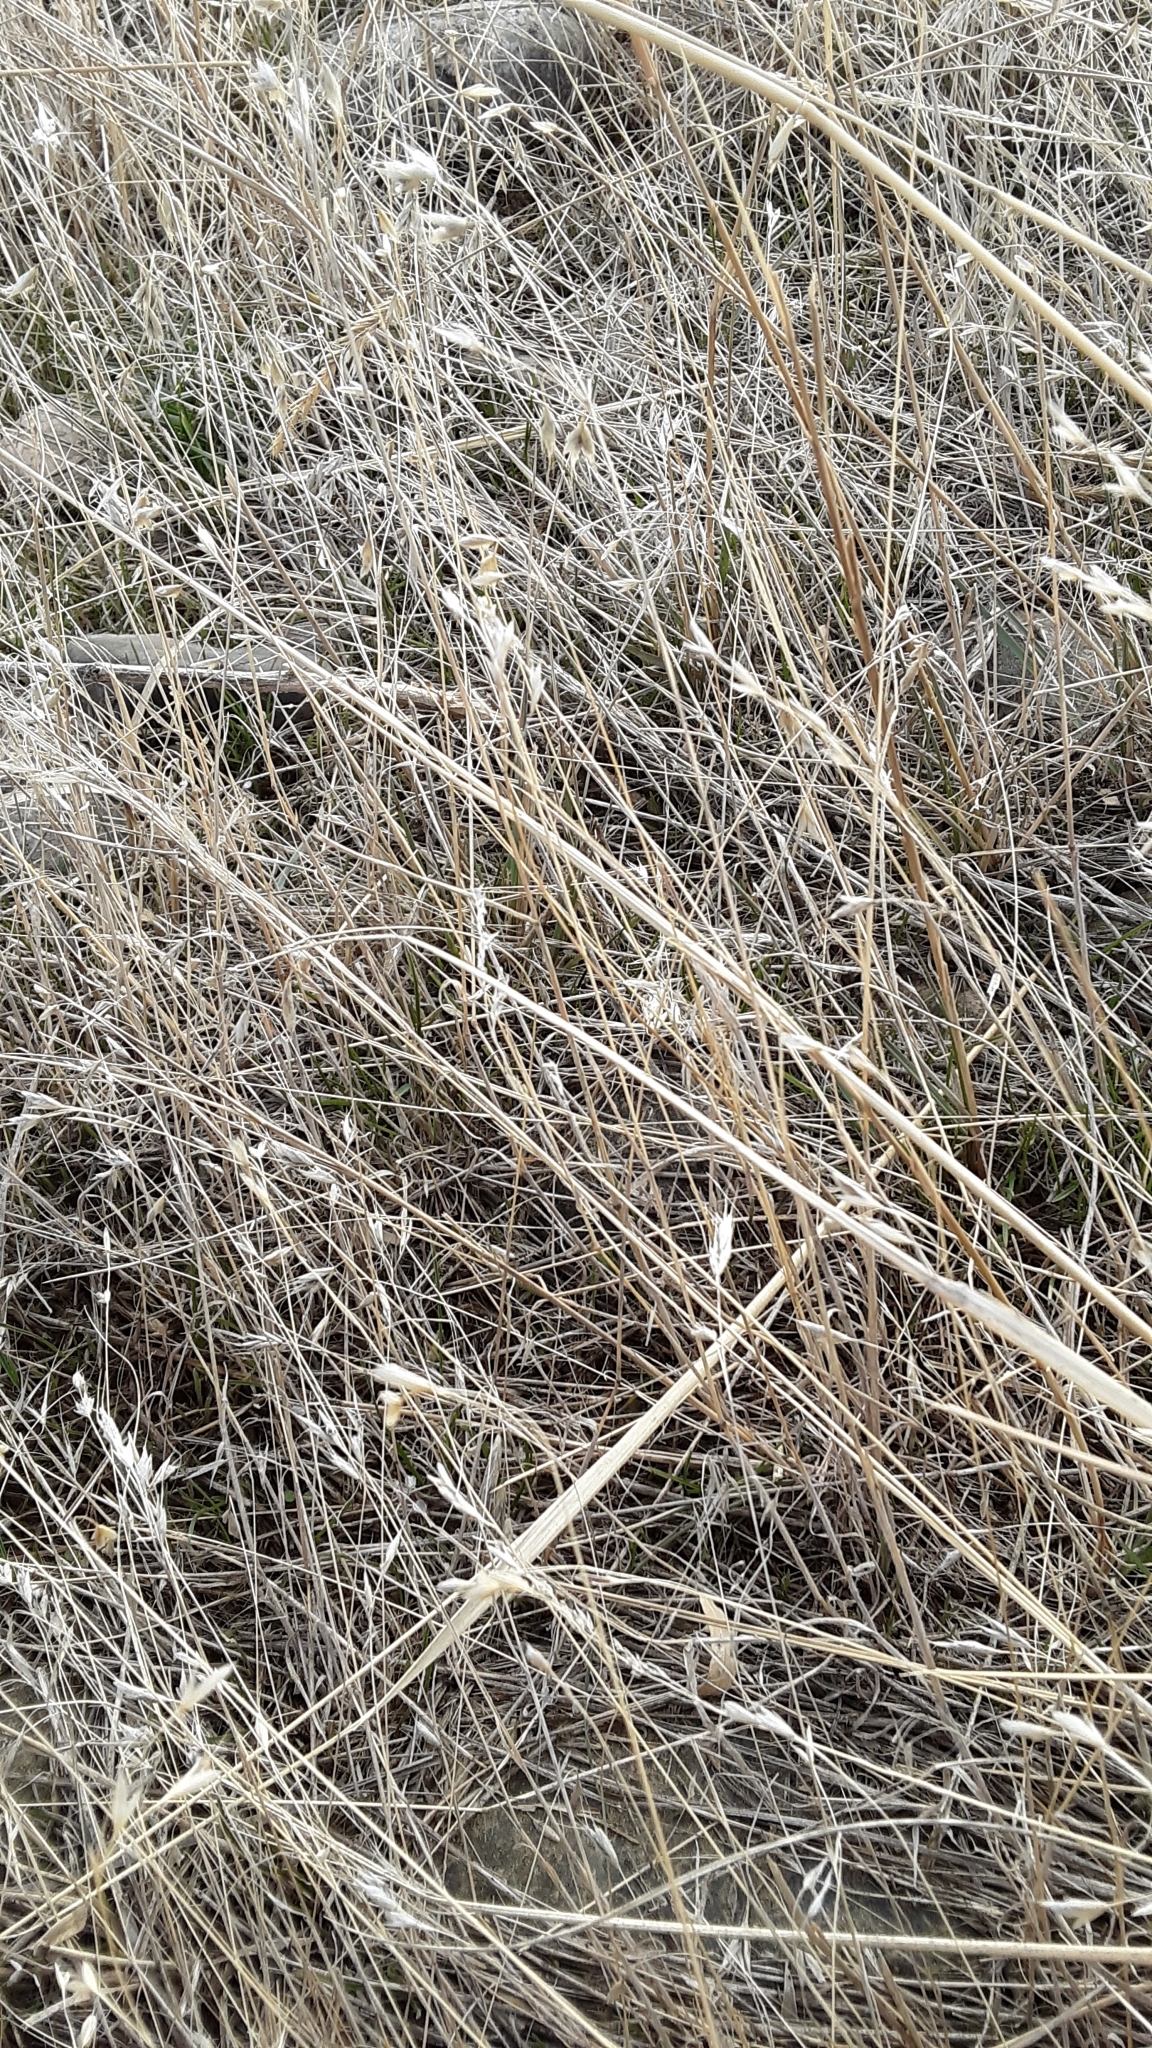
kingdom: Plantae
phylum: Tracheophyta
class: Liliopsida
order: Poales
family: Poaceae
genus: Eriocoma
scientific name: Eriocoma hymenoides
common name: Indian mountain ricegrass
